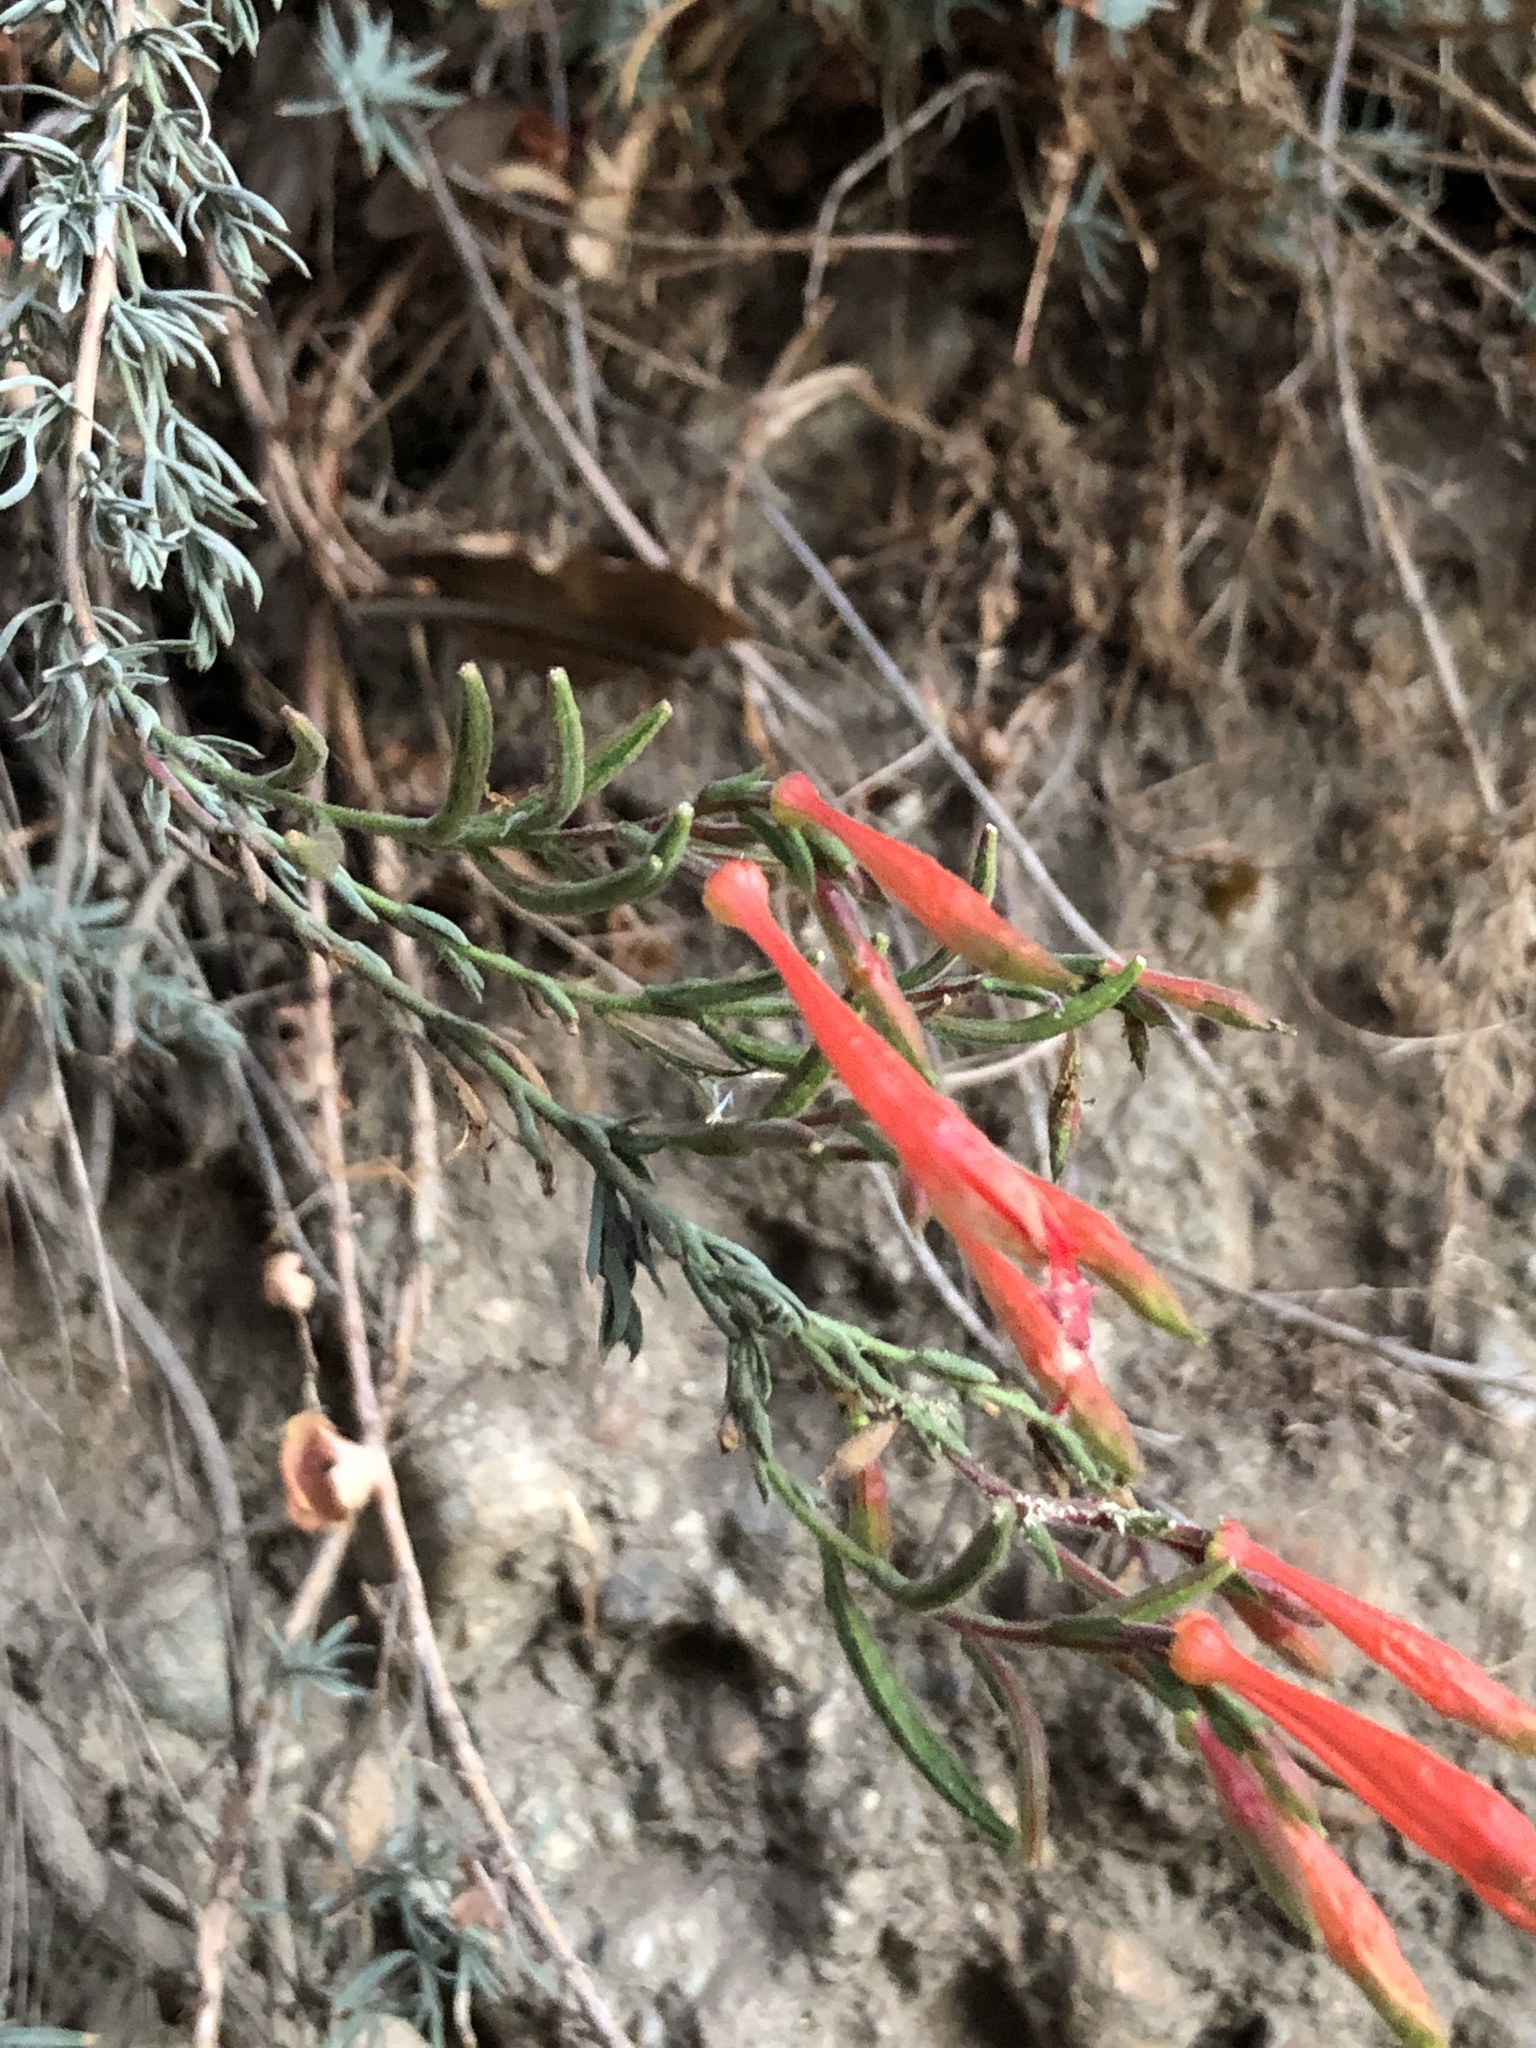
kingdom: Plantae
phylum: Tracheophyta
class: Magnoliopsida
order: Myrtales
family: Onagraceae
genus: Epilobium
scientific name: Epilobium canum
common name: California-fuchsia
